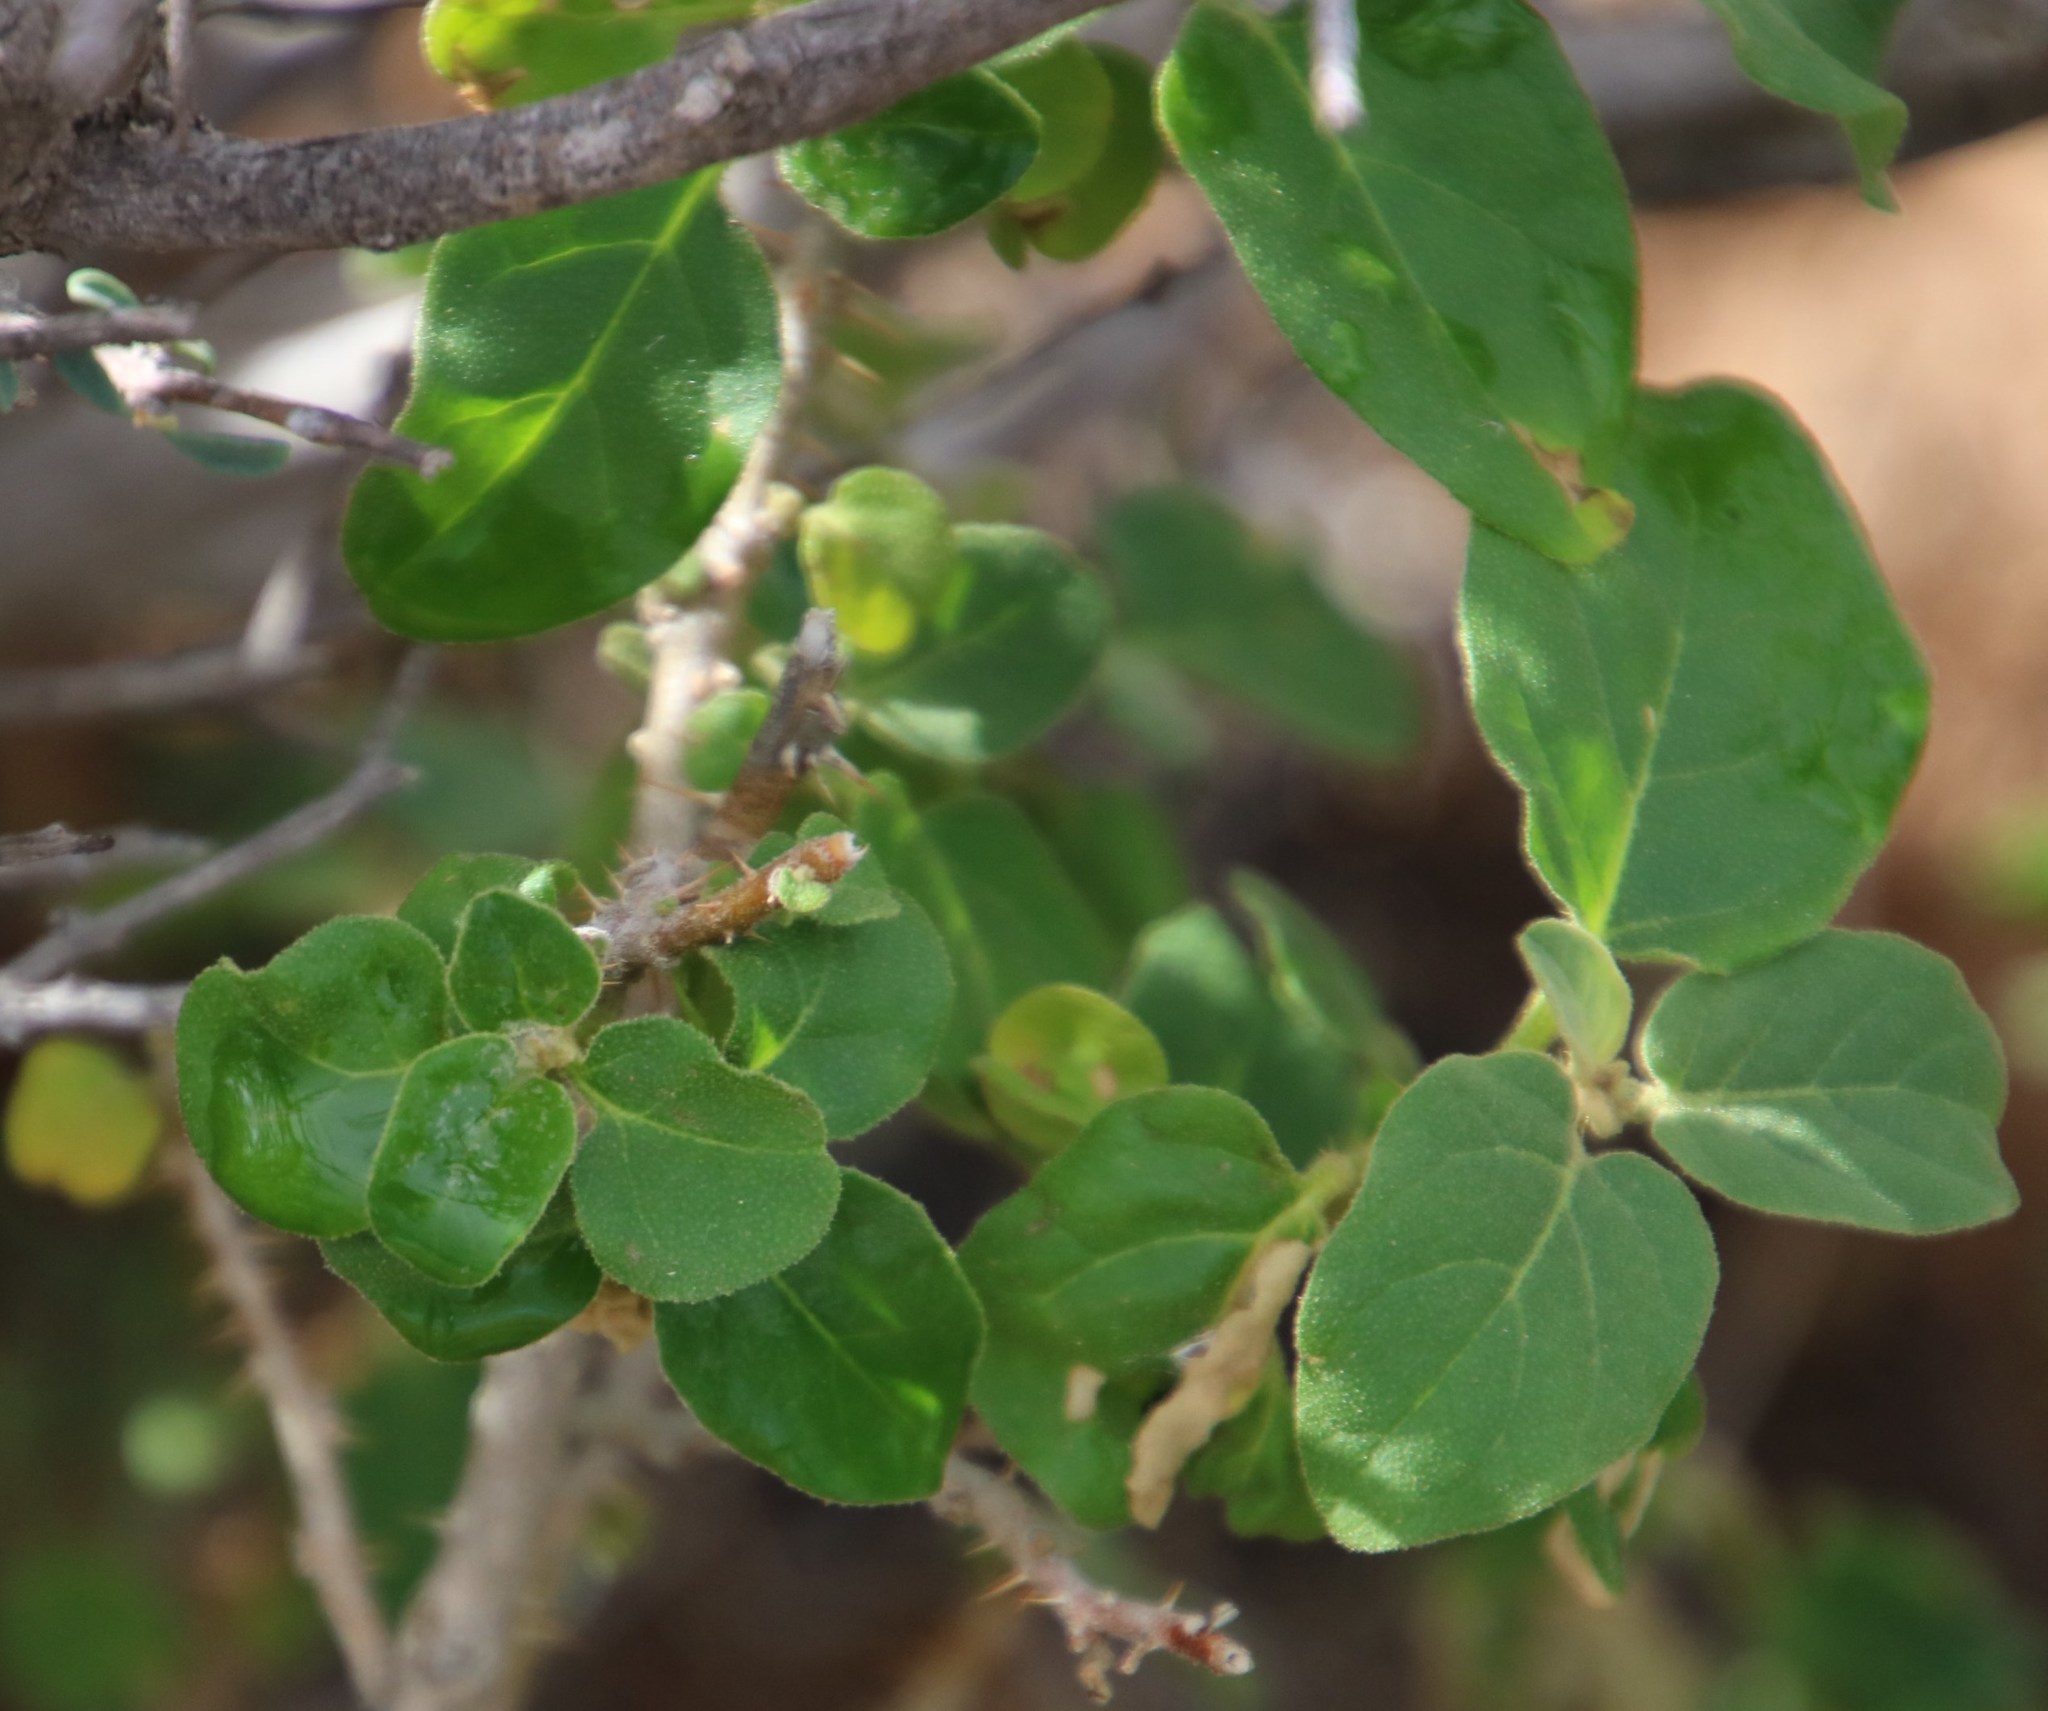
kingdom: Plantae
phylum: Tracheophyta
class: Magnoliopsida
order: Solanales
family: Solanaceae
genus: Solanum
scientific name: Solanum tomentosum
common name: Wild aubergine
